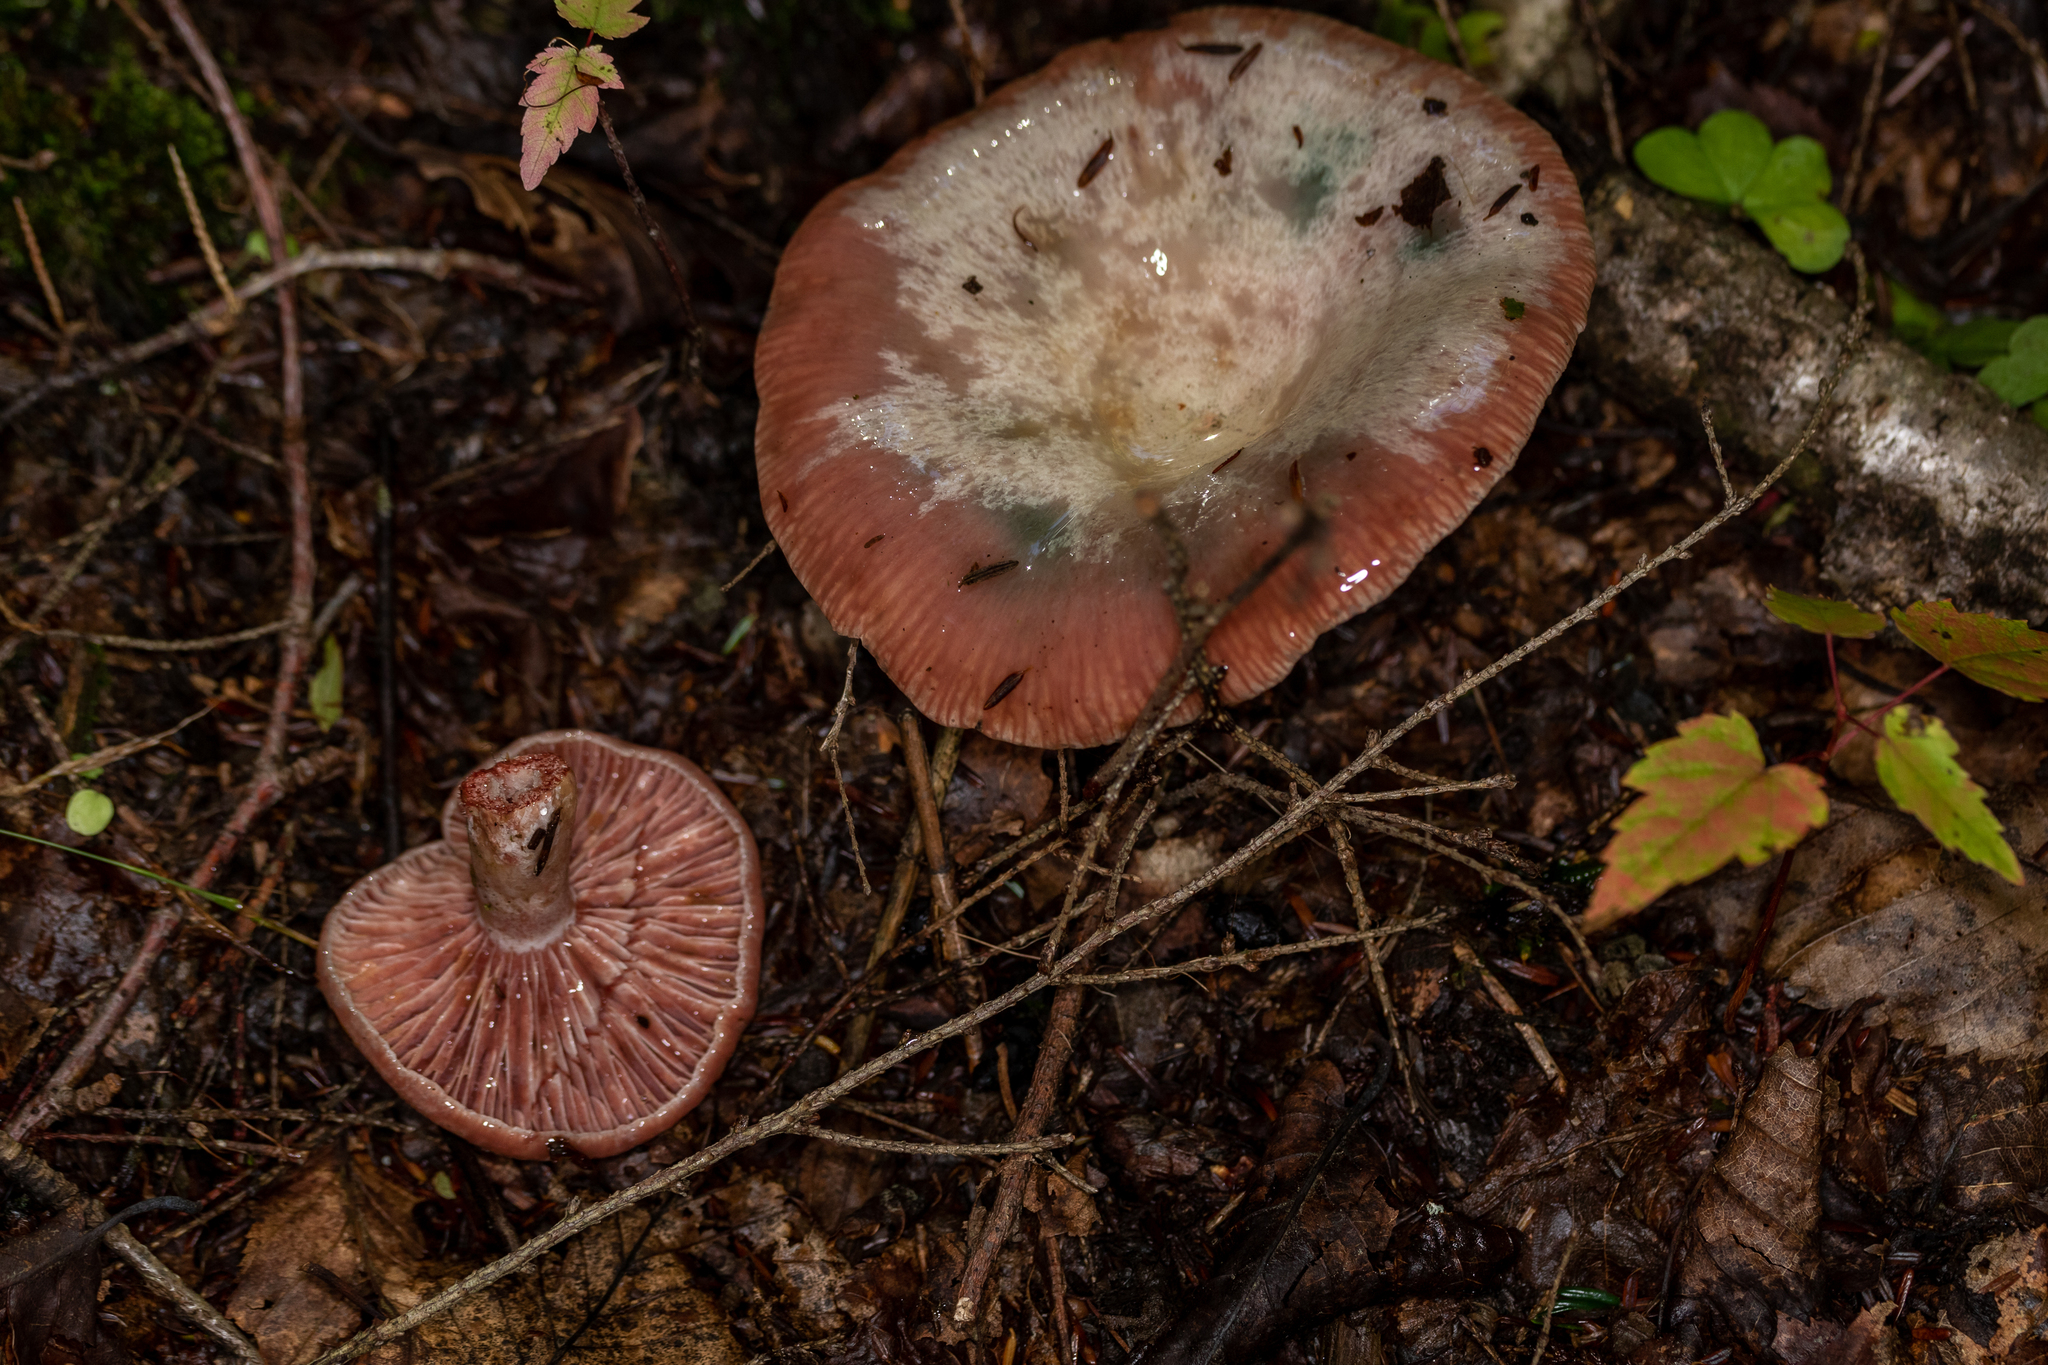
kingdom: Fungi
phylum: Basidiomycota
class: Agaricomycetes
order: Russulales
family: Russulaceae
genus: Lactarius
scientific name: Lactarius subpurpureus
